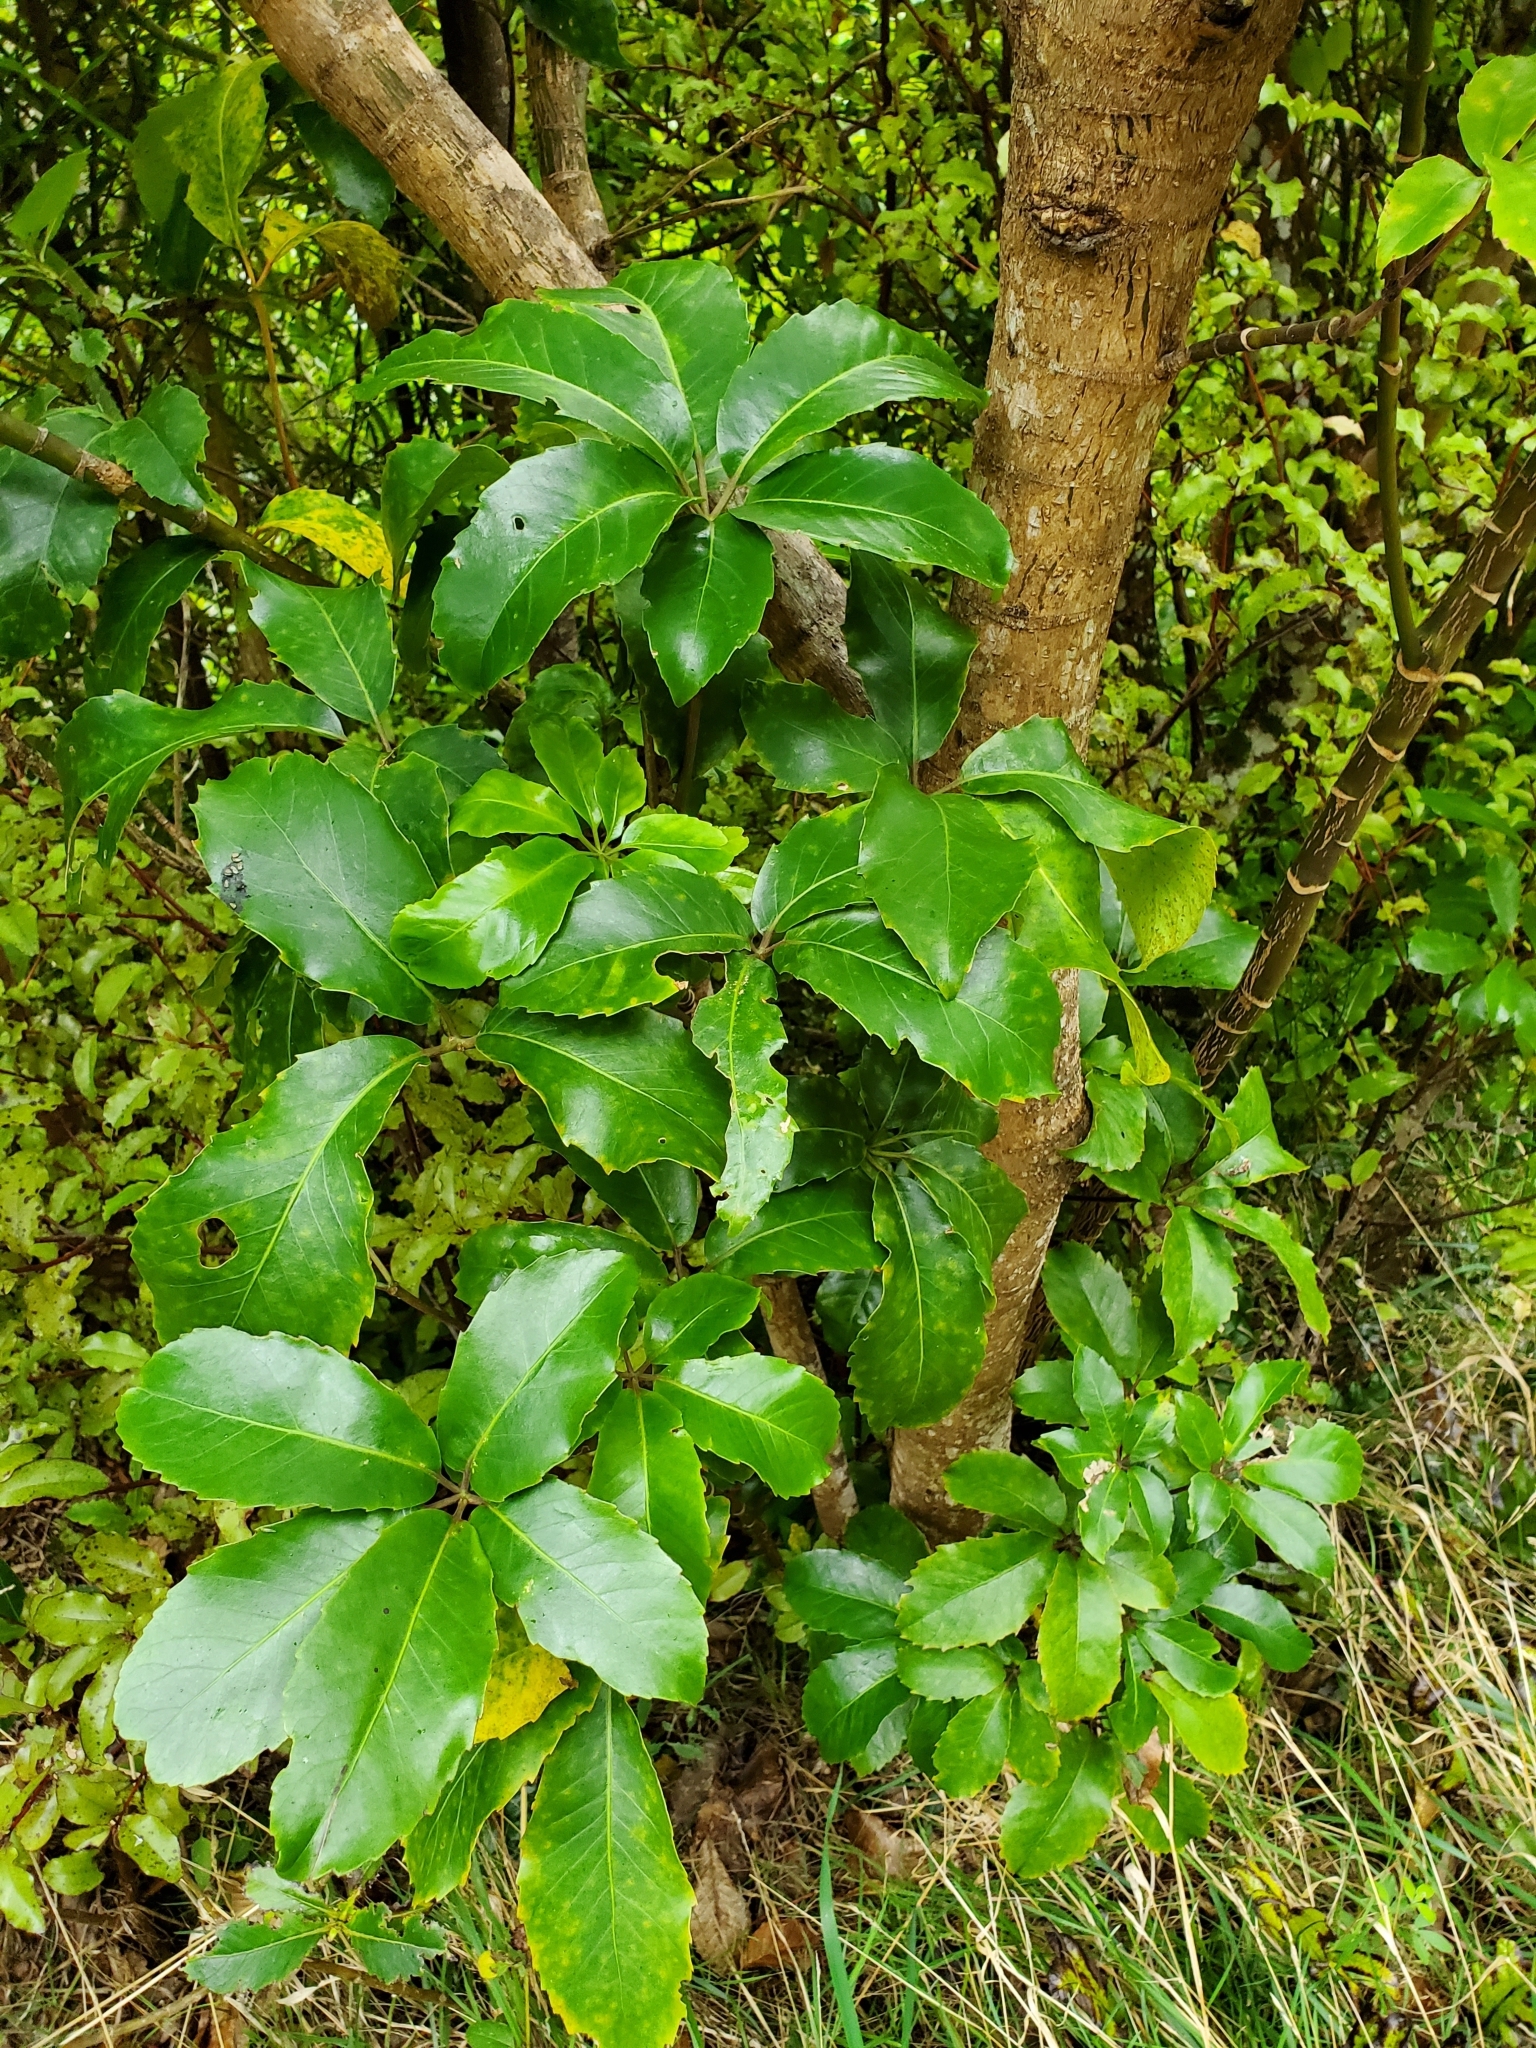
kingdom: Plantae
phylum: Tracheophyta
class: Magnoliopsida
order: Apiales
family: Araliaceae
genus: Neopanax
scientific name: Neopanax arboreus
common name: Five-fingers
